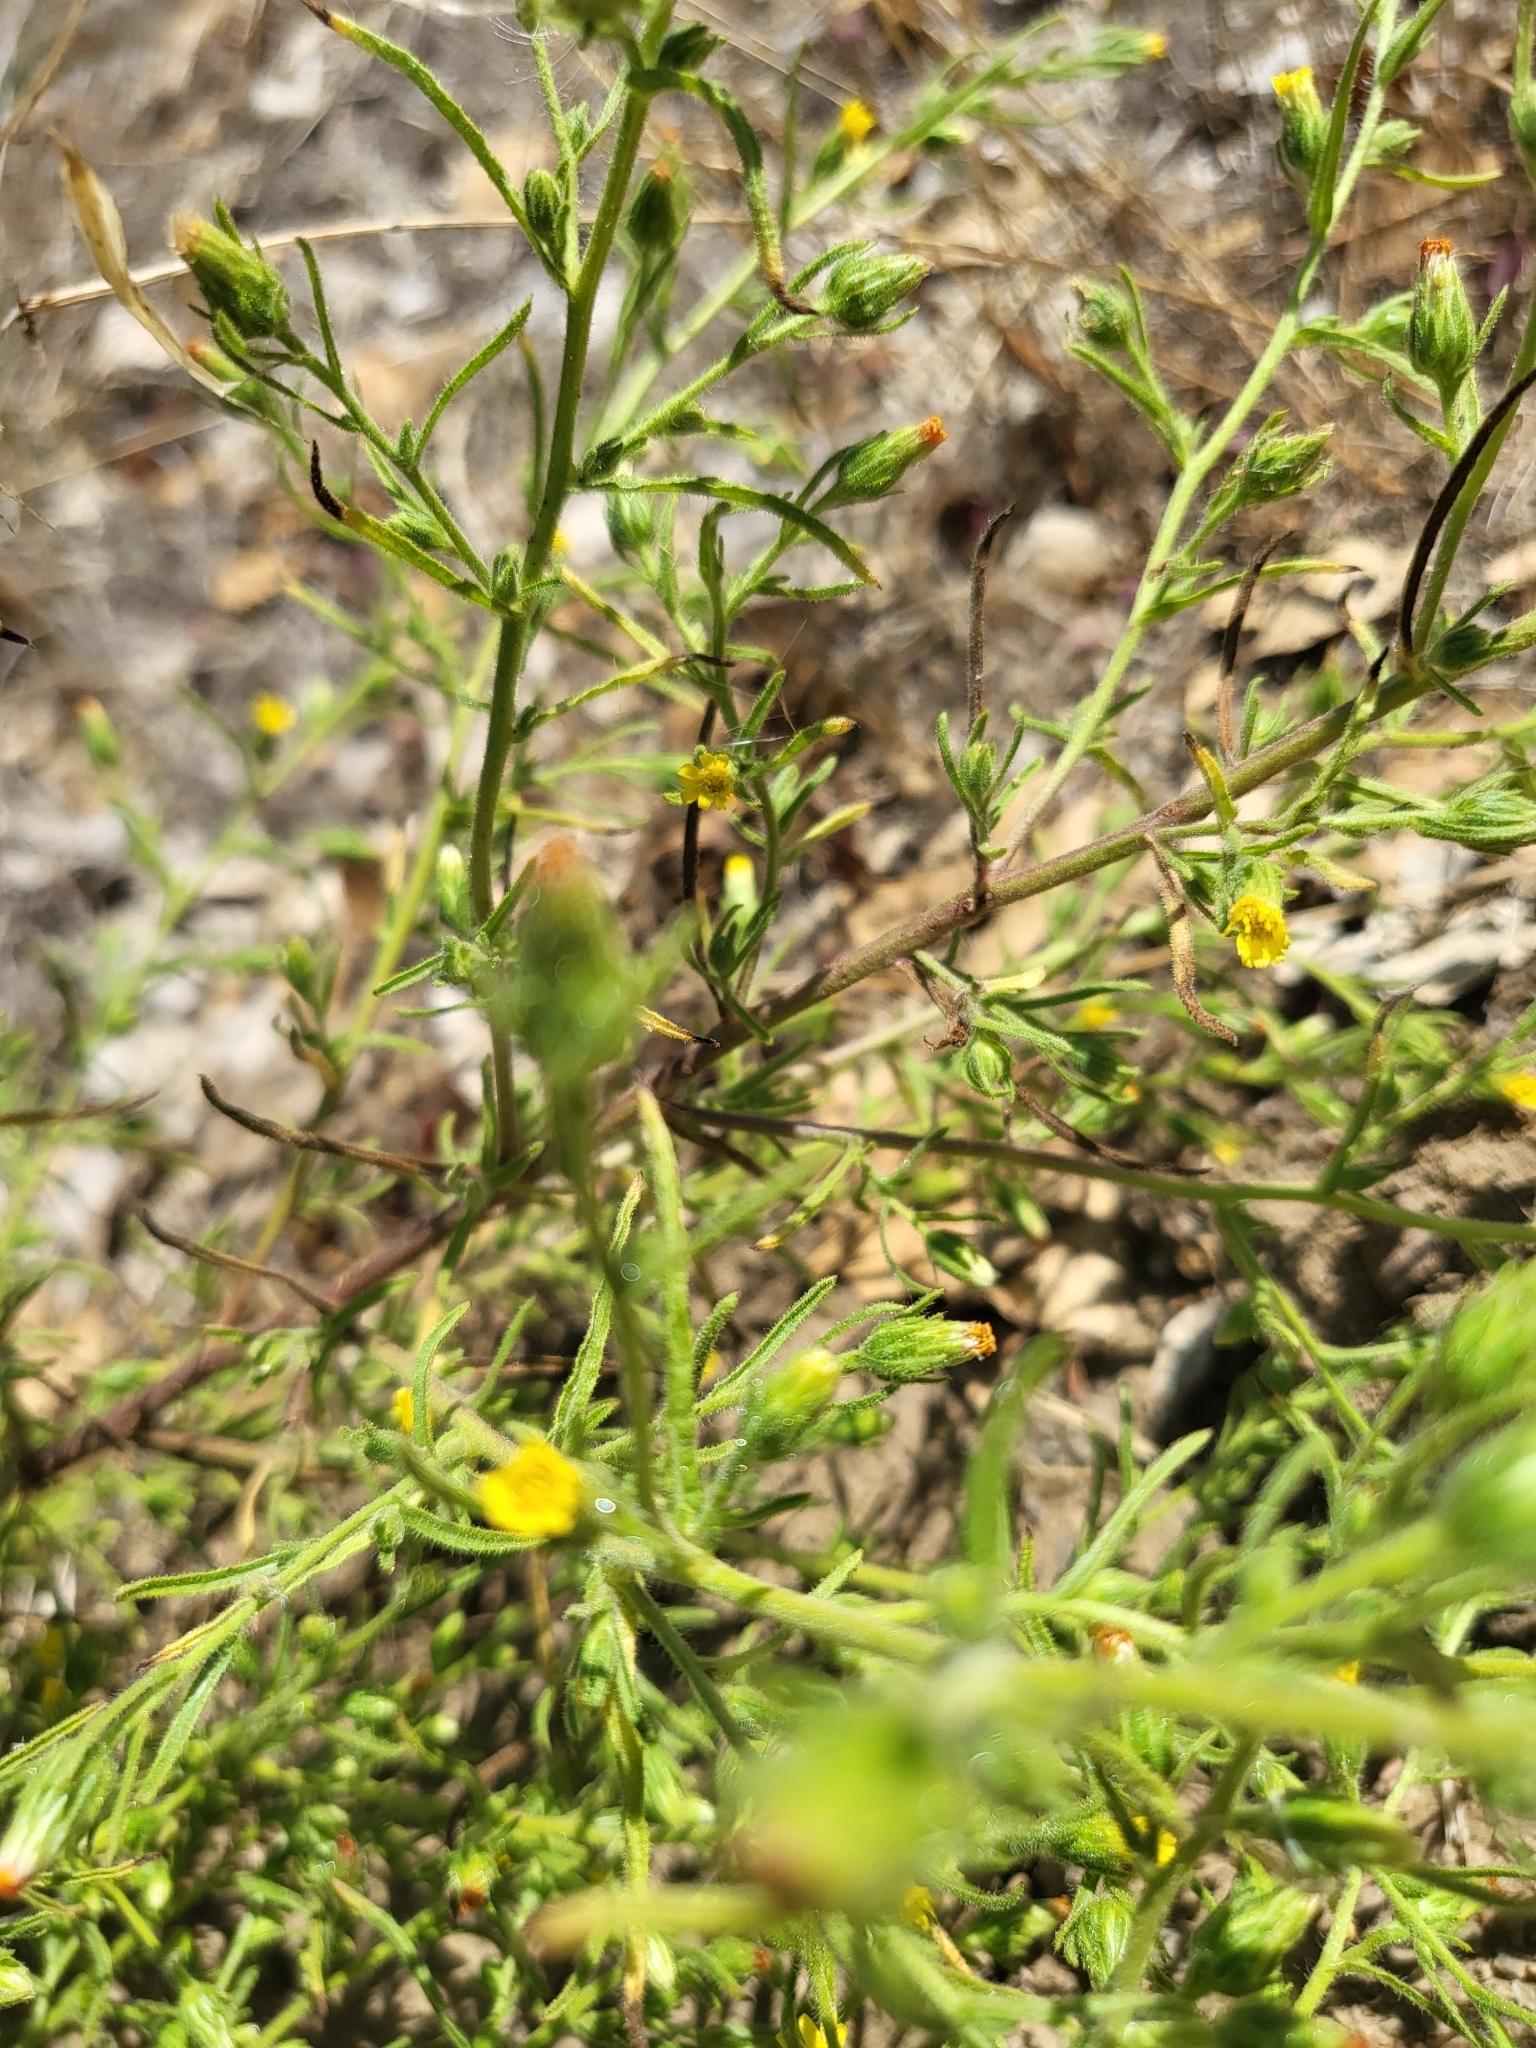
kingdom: Plantae
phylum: Tracheophyta
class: Magnoliopsida
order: Asterales
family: Asteraceae
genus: Dittrichia
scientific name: Dittrichia graveolens
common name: Stinking fleabane
